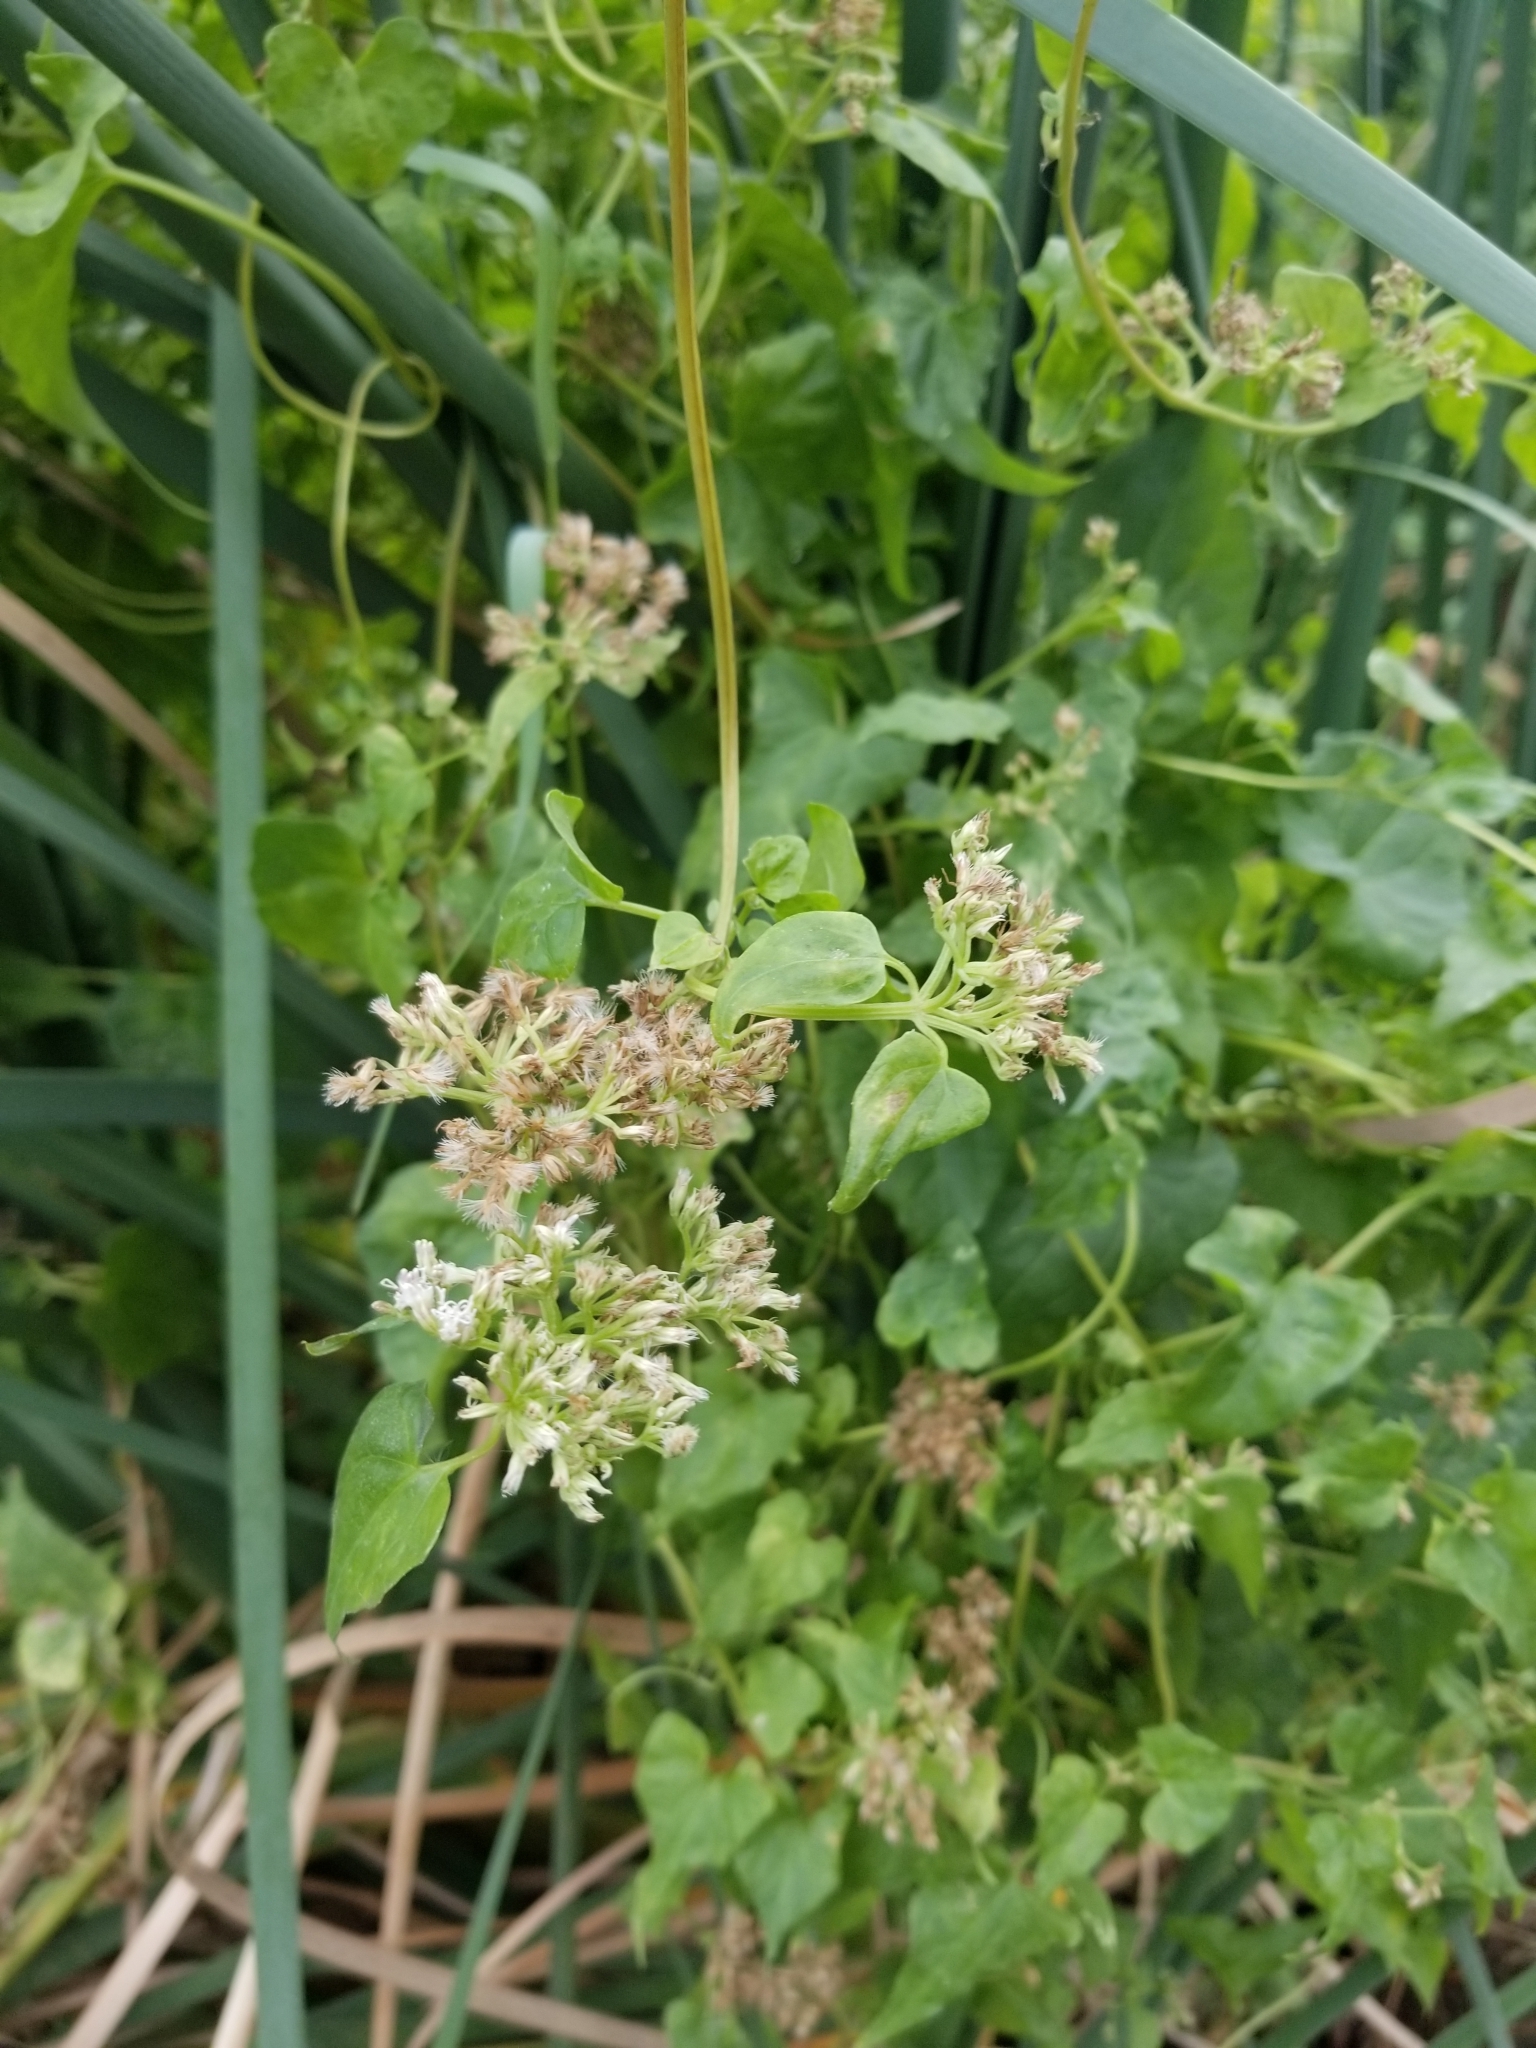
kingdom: Plantae
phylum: Tracheophyta
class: Magnoliopsida
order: Asterales
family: Asteraceae
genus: Mikania
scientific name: Mikania scandens
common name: Climbing hempvine
